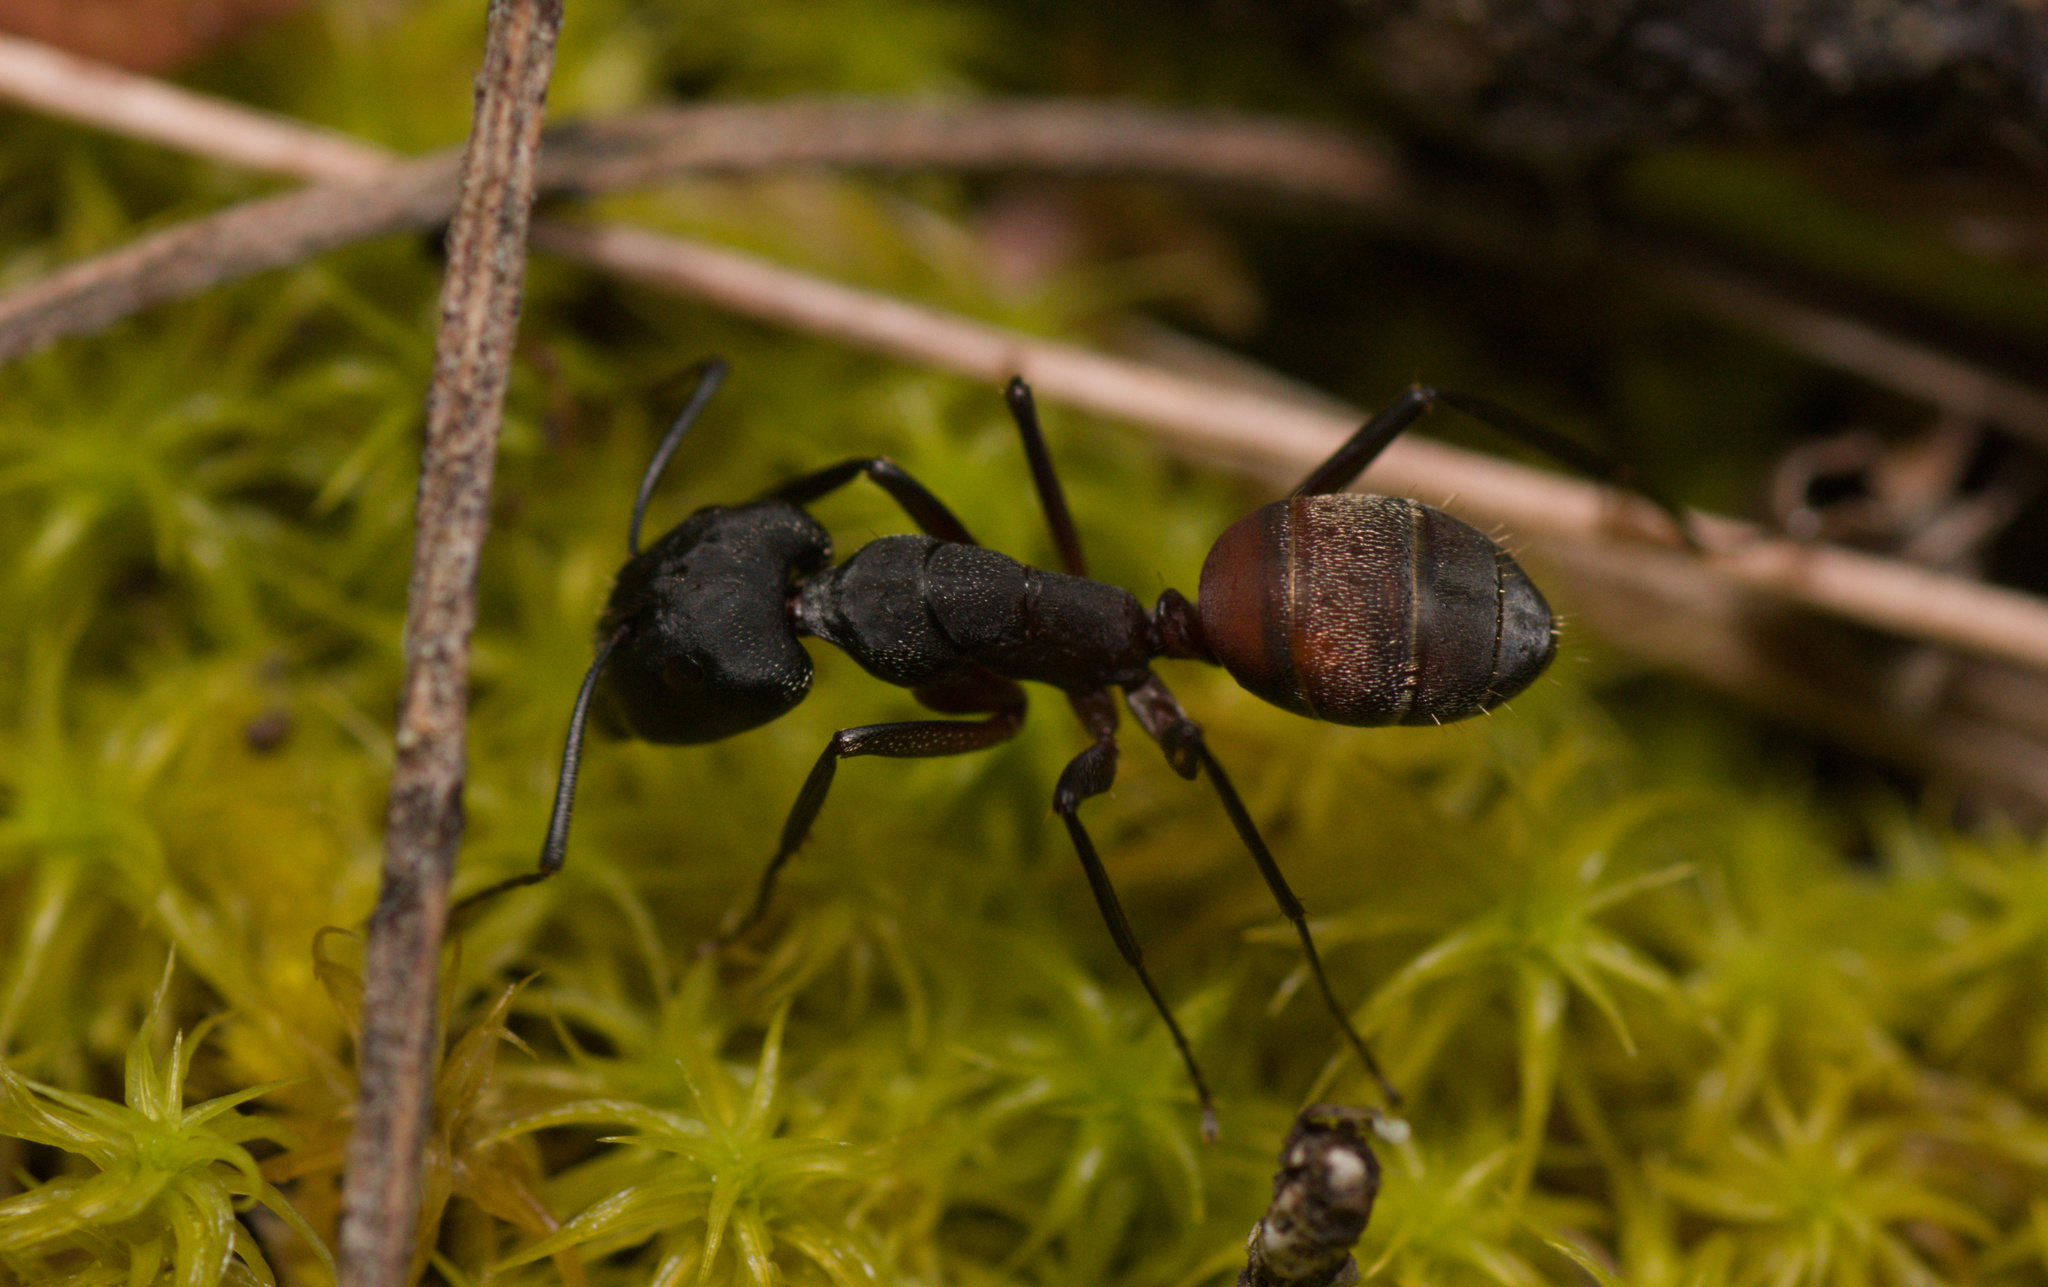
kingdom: Animalia
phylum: Arthropoda
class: Insecta
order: Hymenoptera
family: Formicidae
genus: Camponotus
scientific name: Camponotus cruentatus
